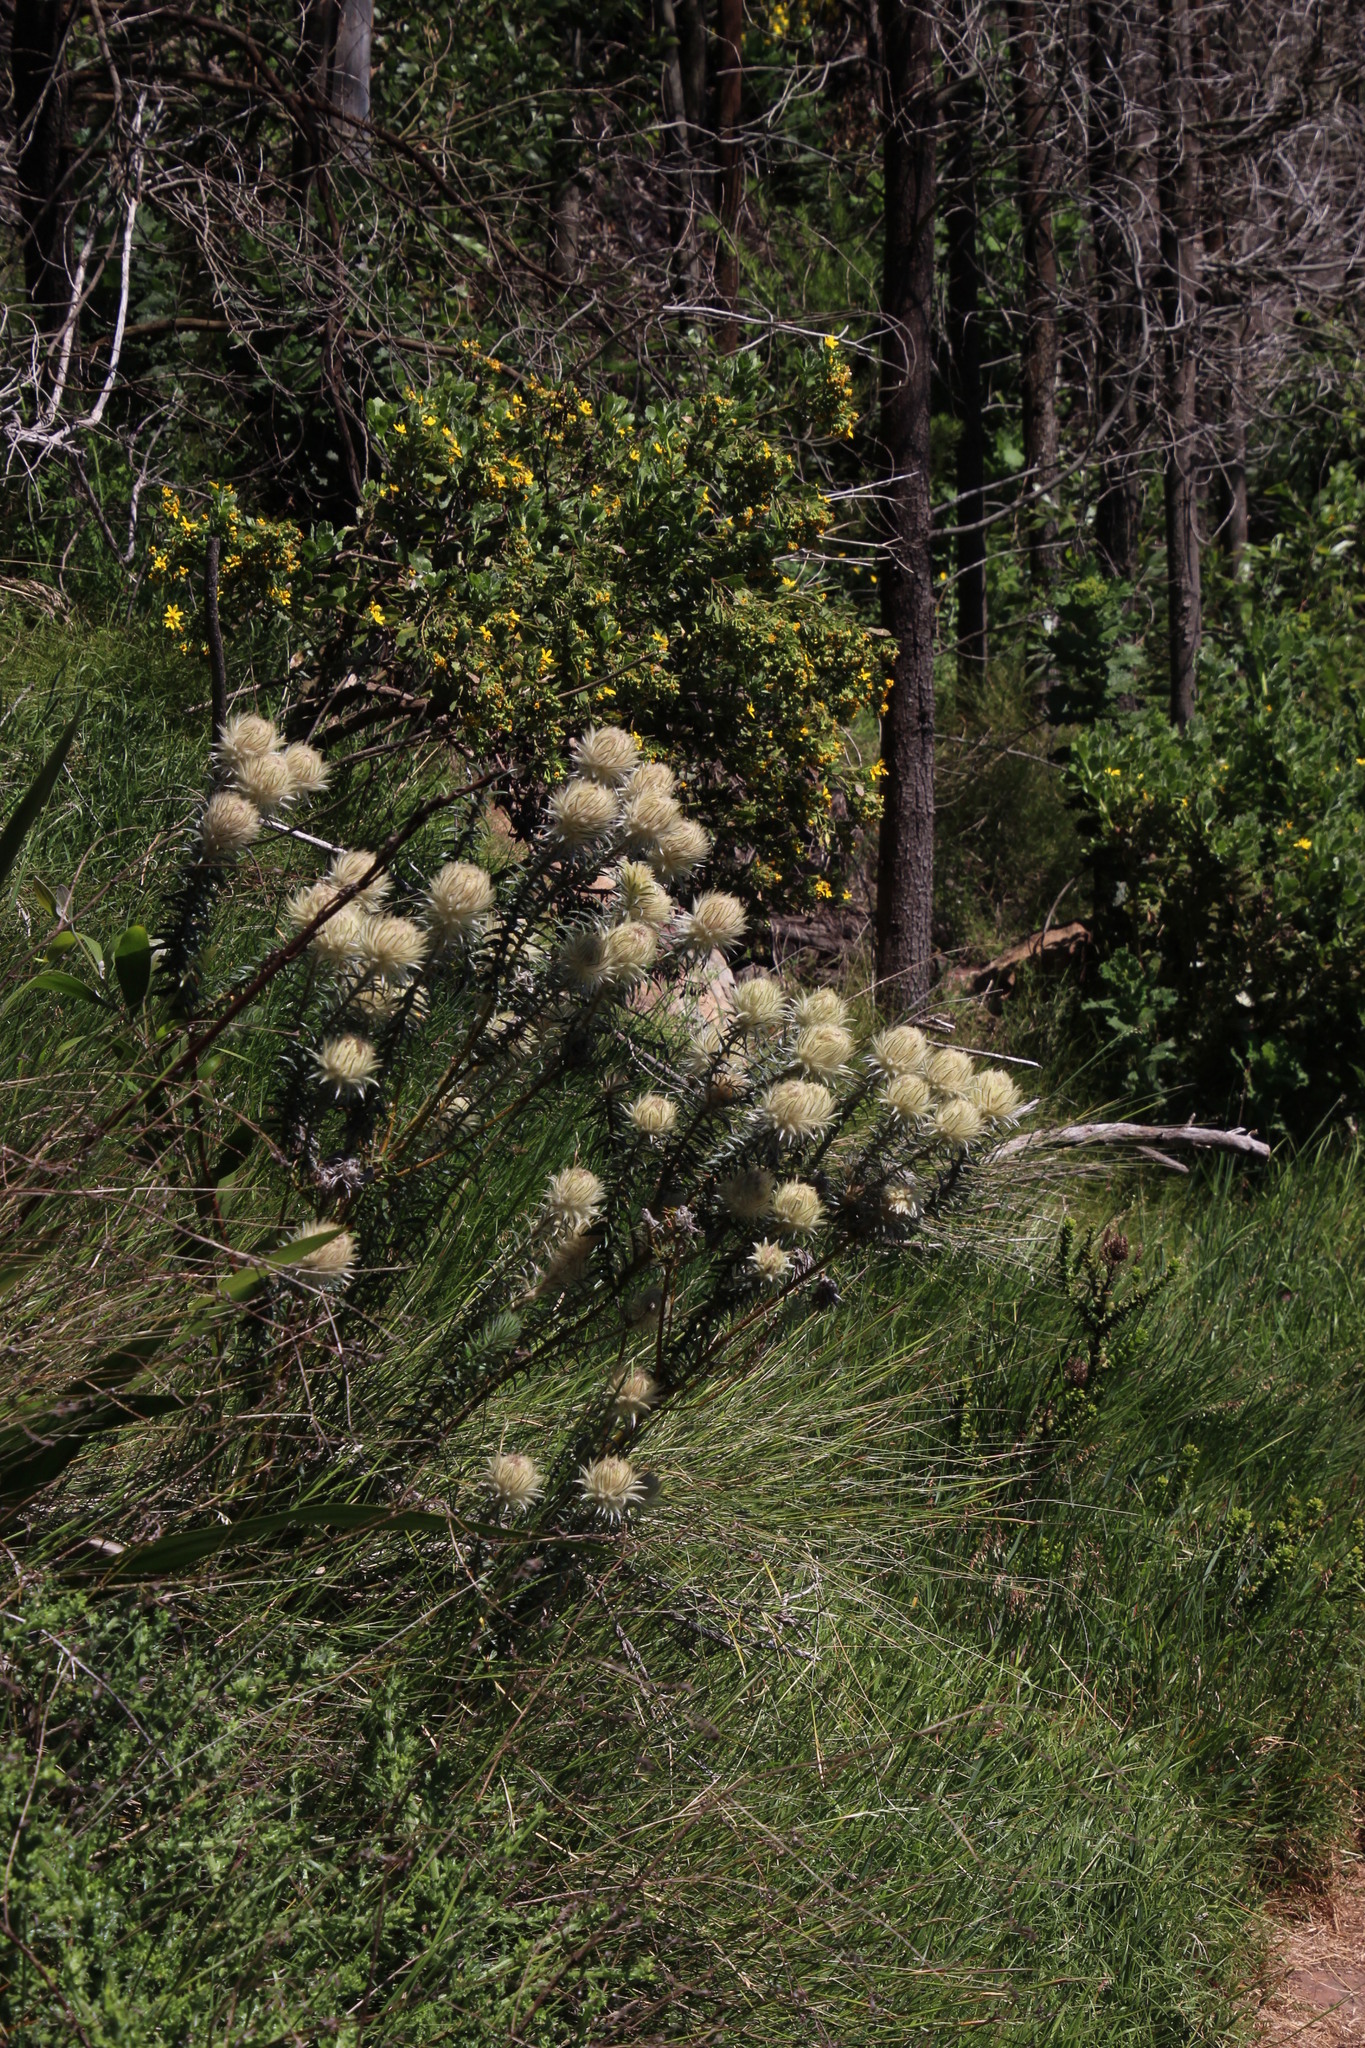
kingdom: Plantae
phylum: Tracheophyta
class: Magnoliopsida
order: Rosales
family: Rhamnaceae
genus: Phylica
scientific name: Phylica pubescens
